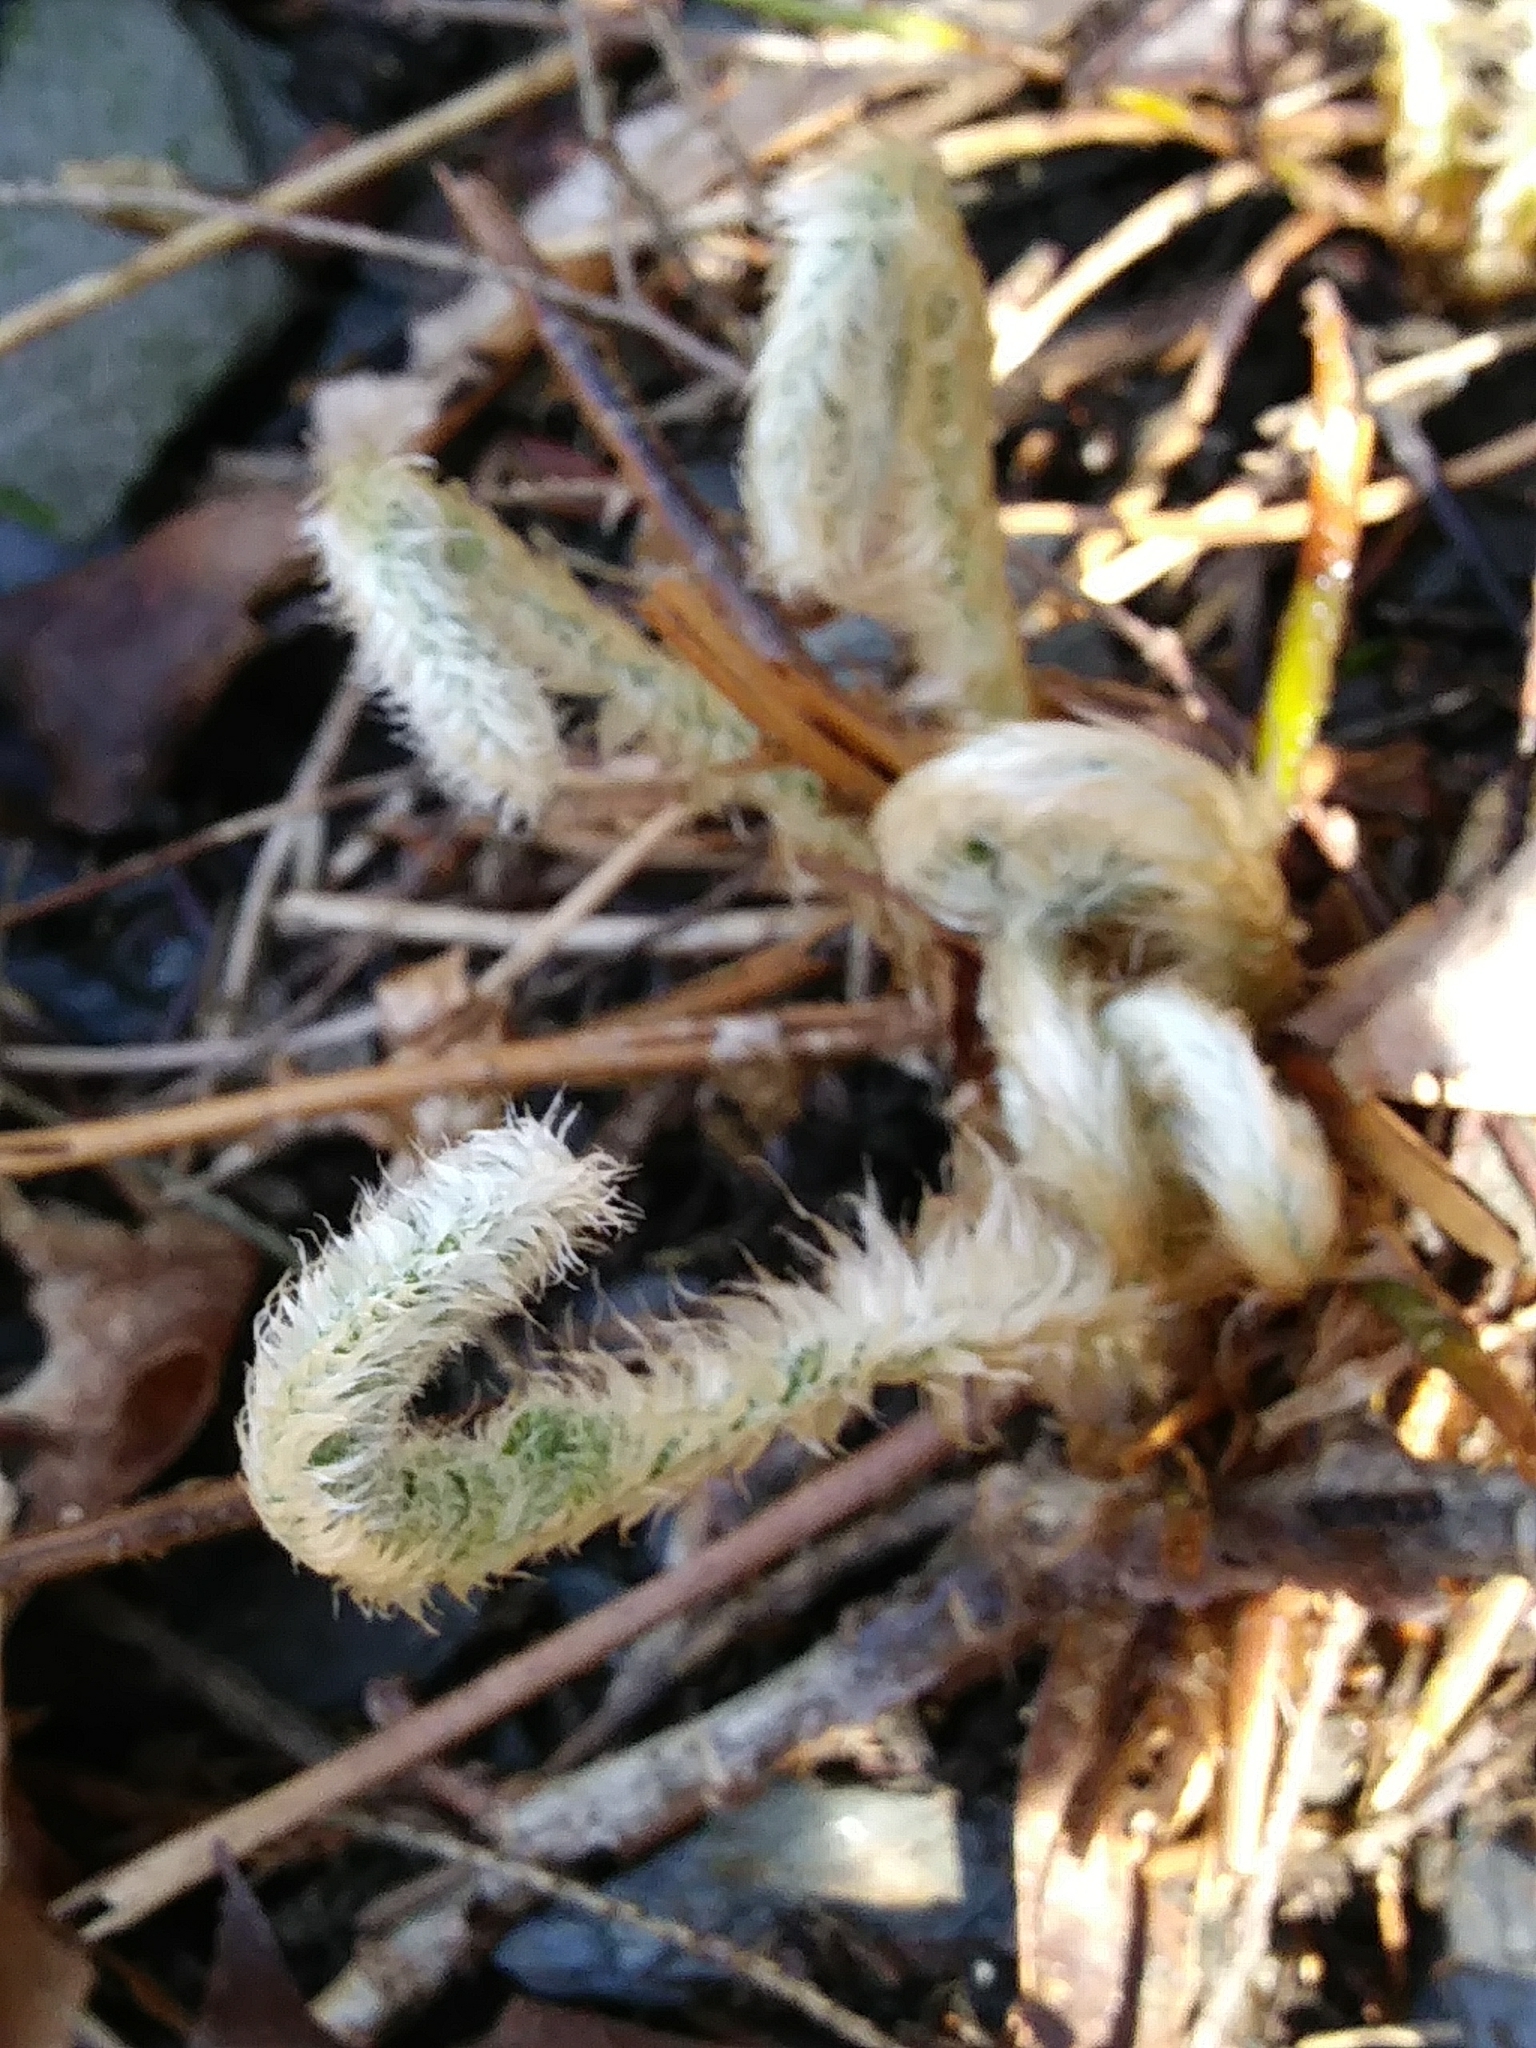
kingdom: Plantae
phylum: Tracheophyta
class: Polypodiopsida
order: Polypodiales
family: Dryopteridaceae
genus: Polystichum
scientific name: Polystichum acrostichoides
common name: Christmas fern
